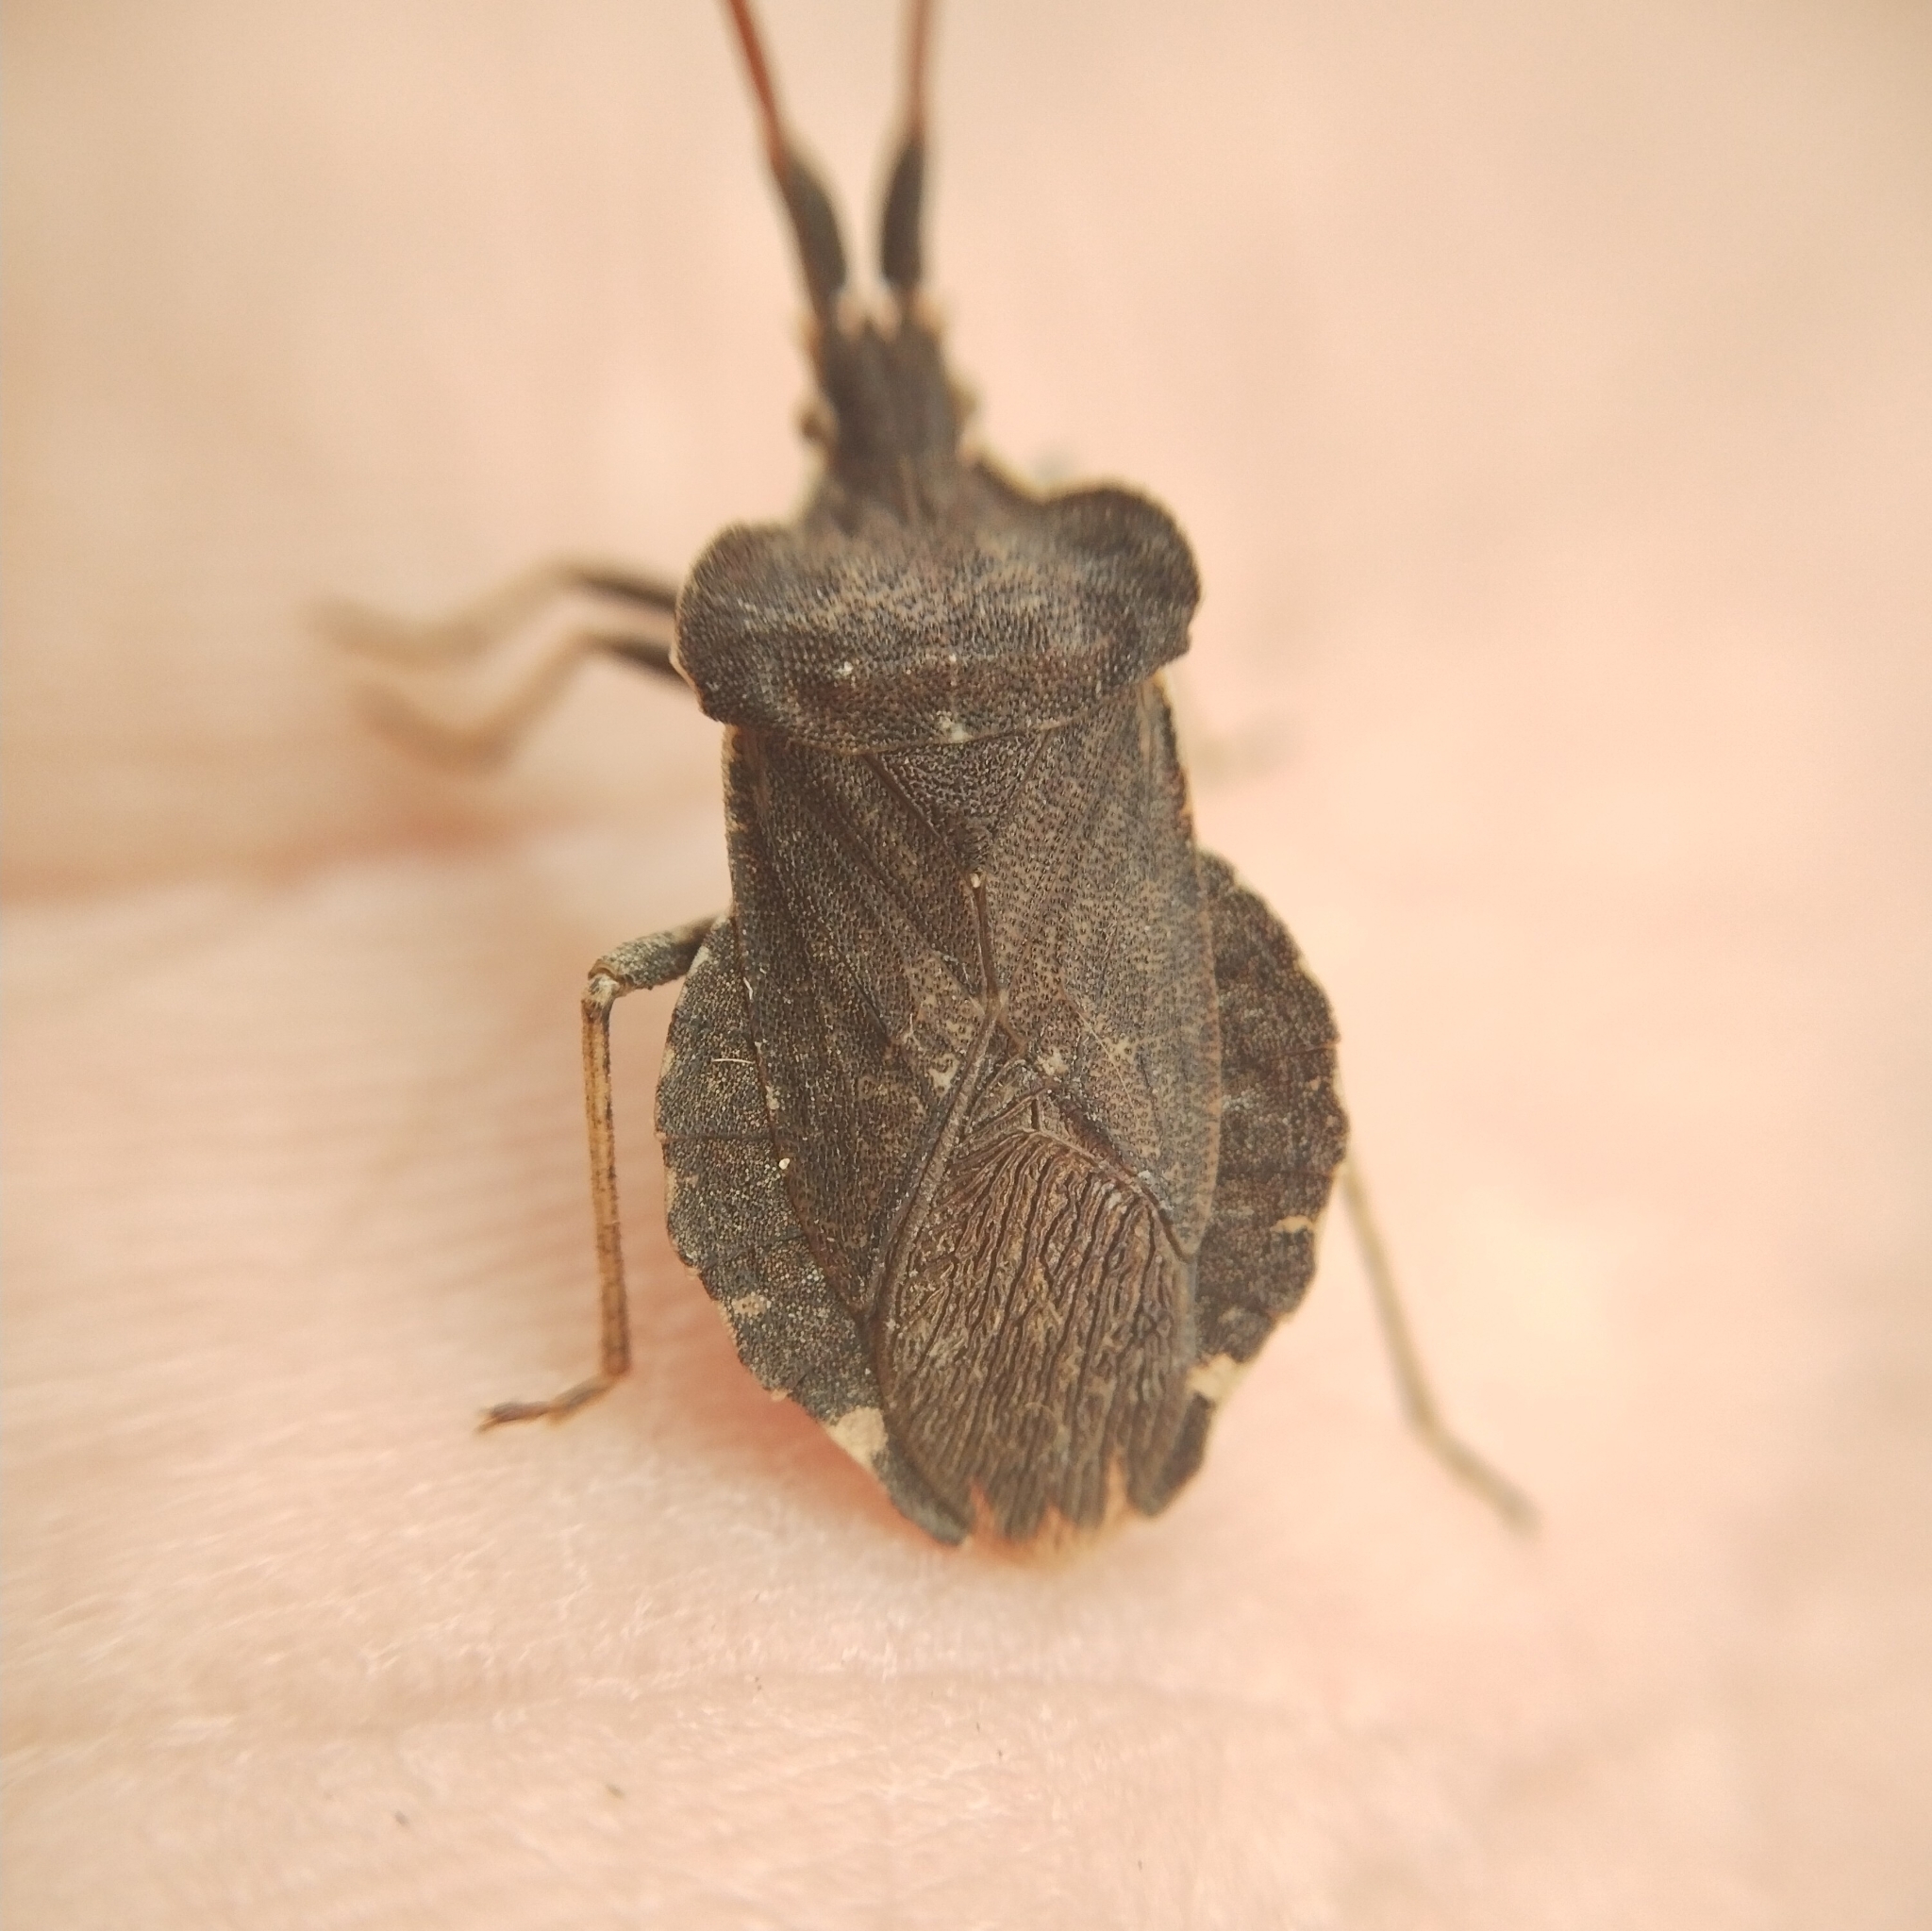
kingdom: Animalia
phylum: Arthropoda
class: Insecta
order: Hemiptera
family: Coreidae
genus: Enoplops
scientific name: Enoplops scapha
